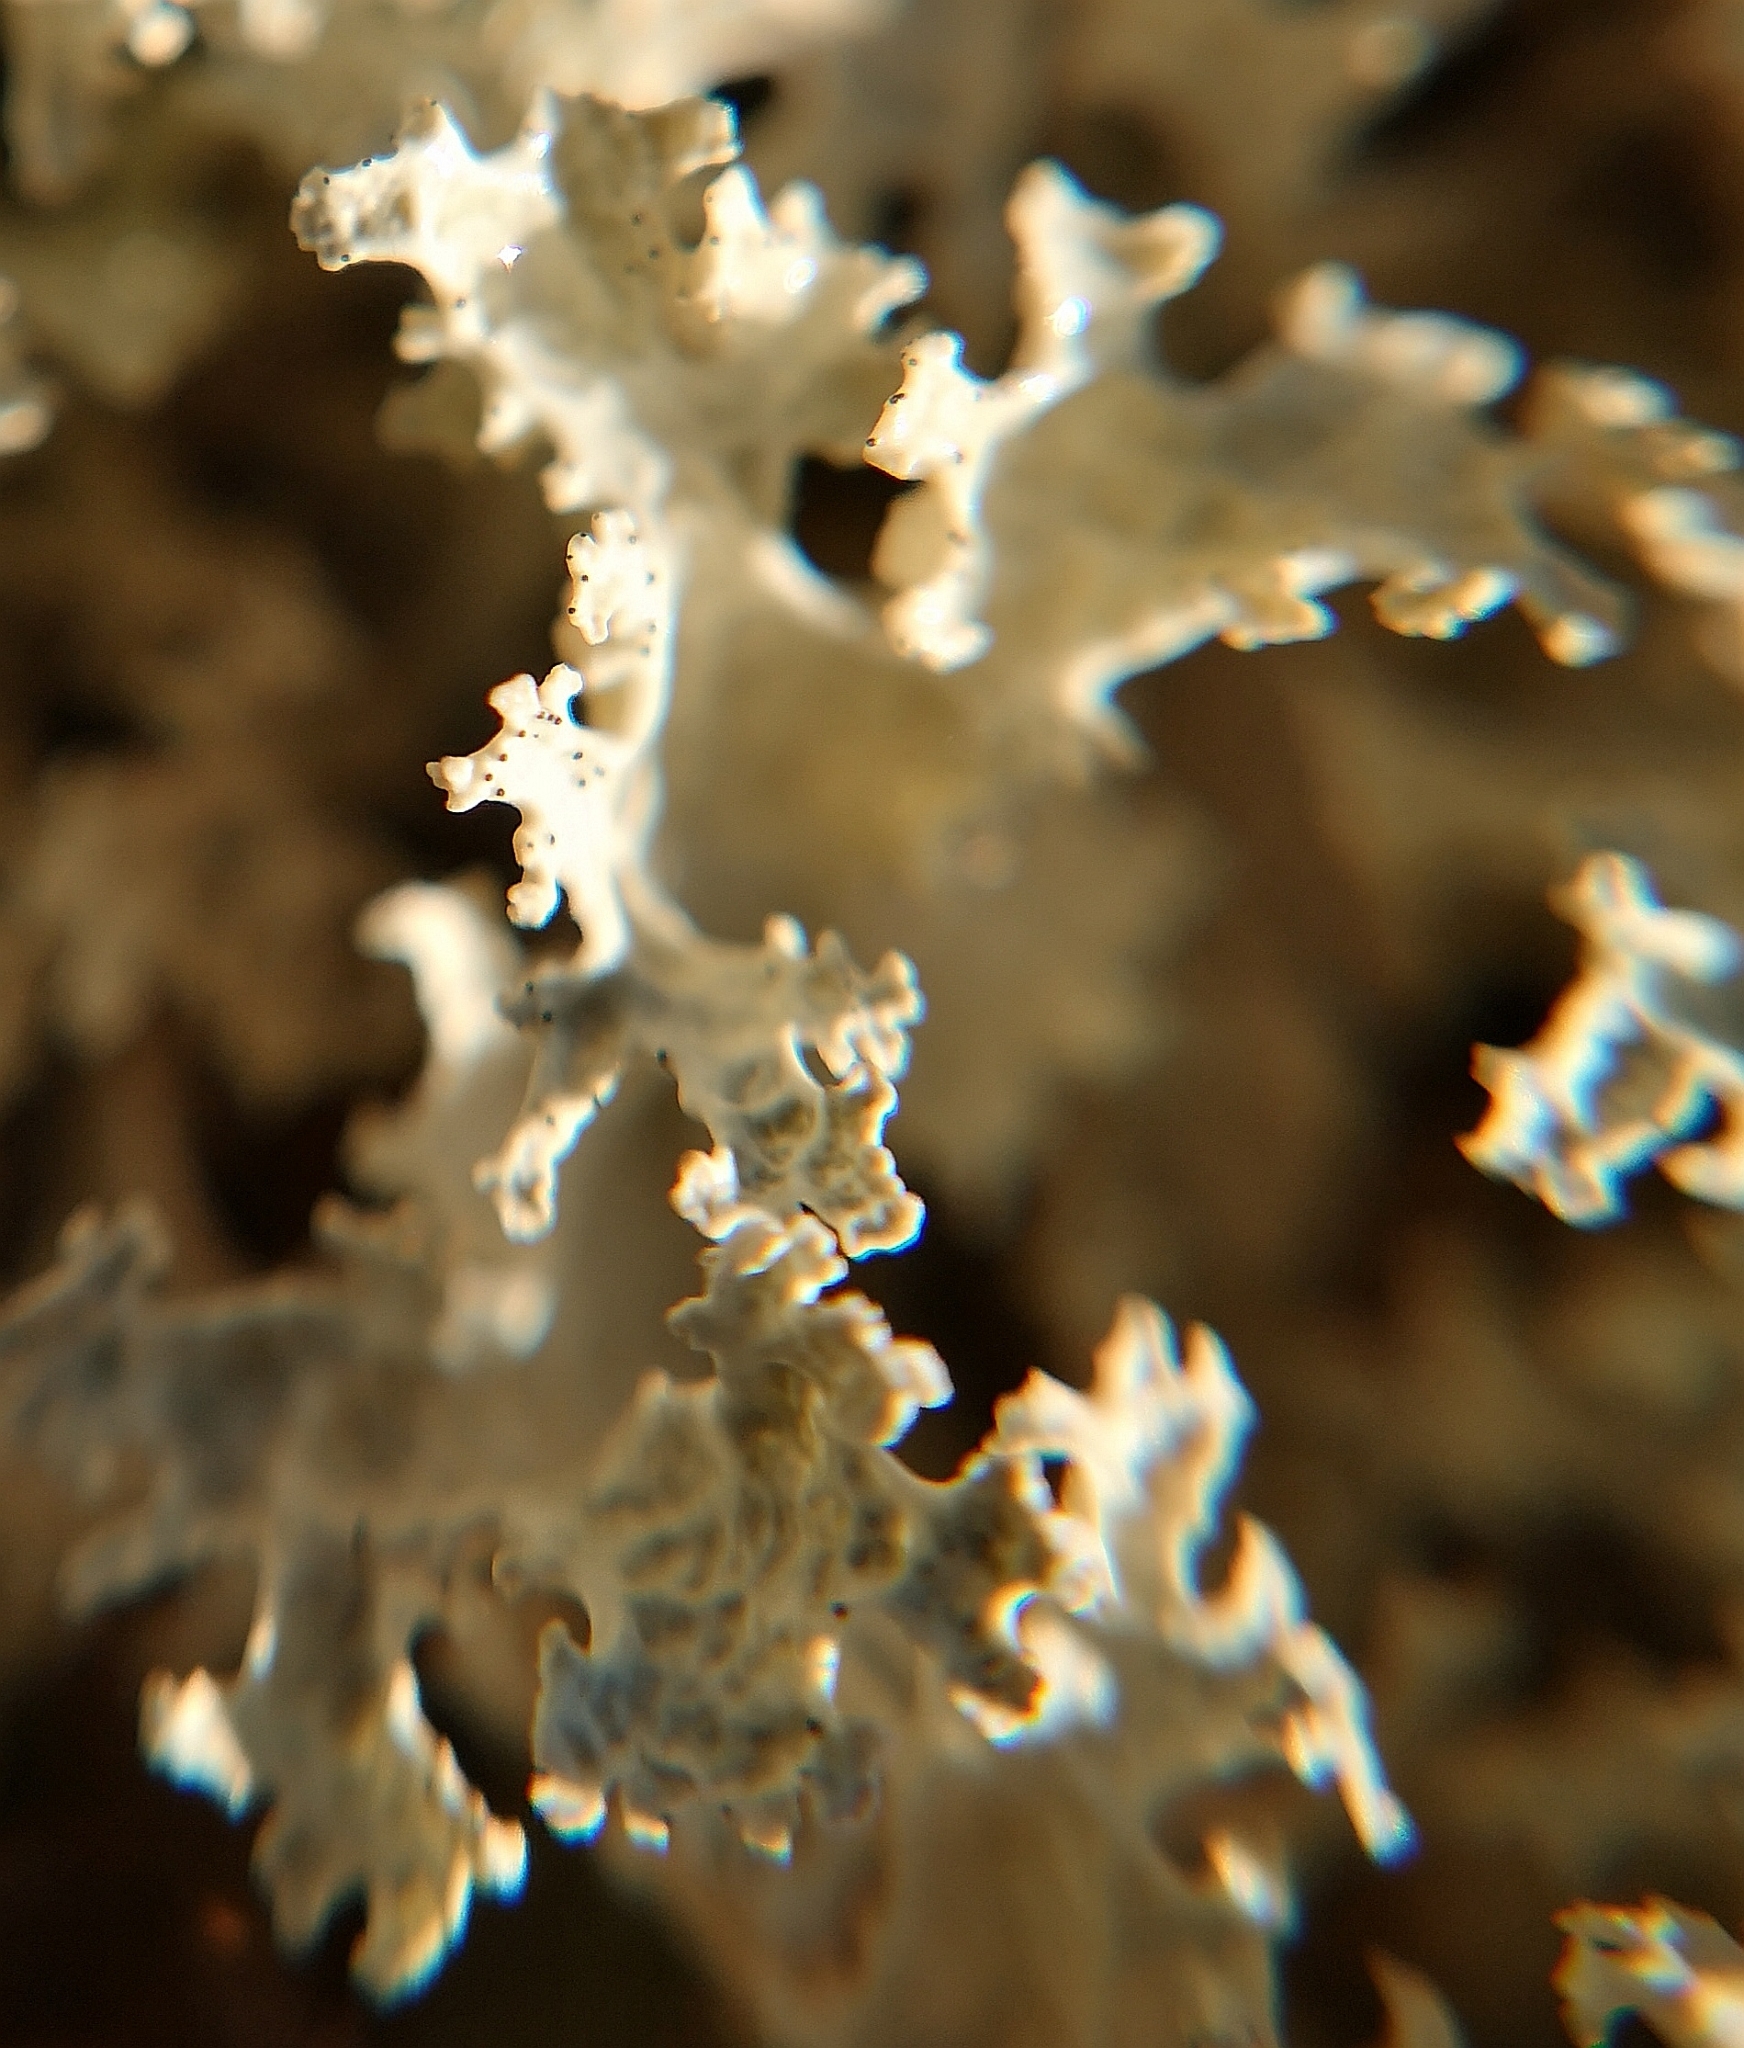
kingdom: Fungi
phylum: Ascomycota
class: Lecanoromycetes
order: Lecanorales
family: Parmeliaceae
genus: Nephromopsis
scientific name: Nephromopsis nivalis
